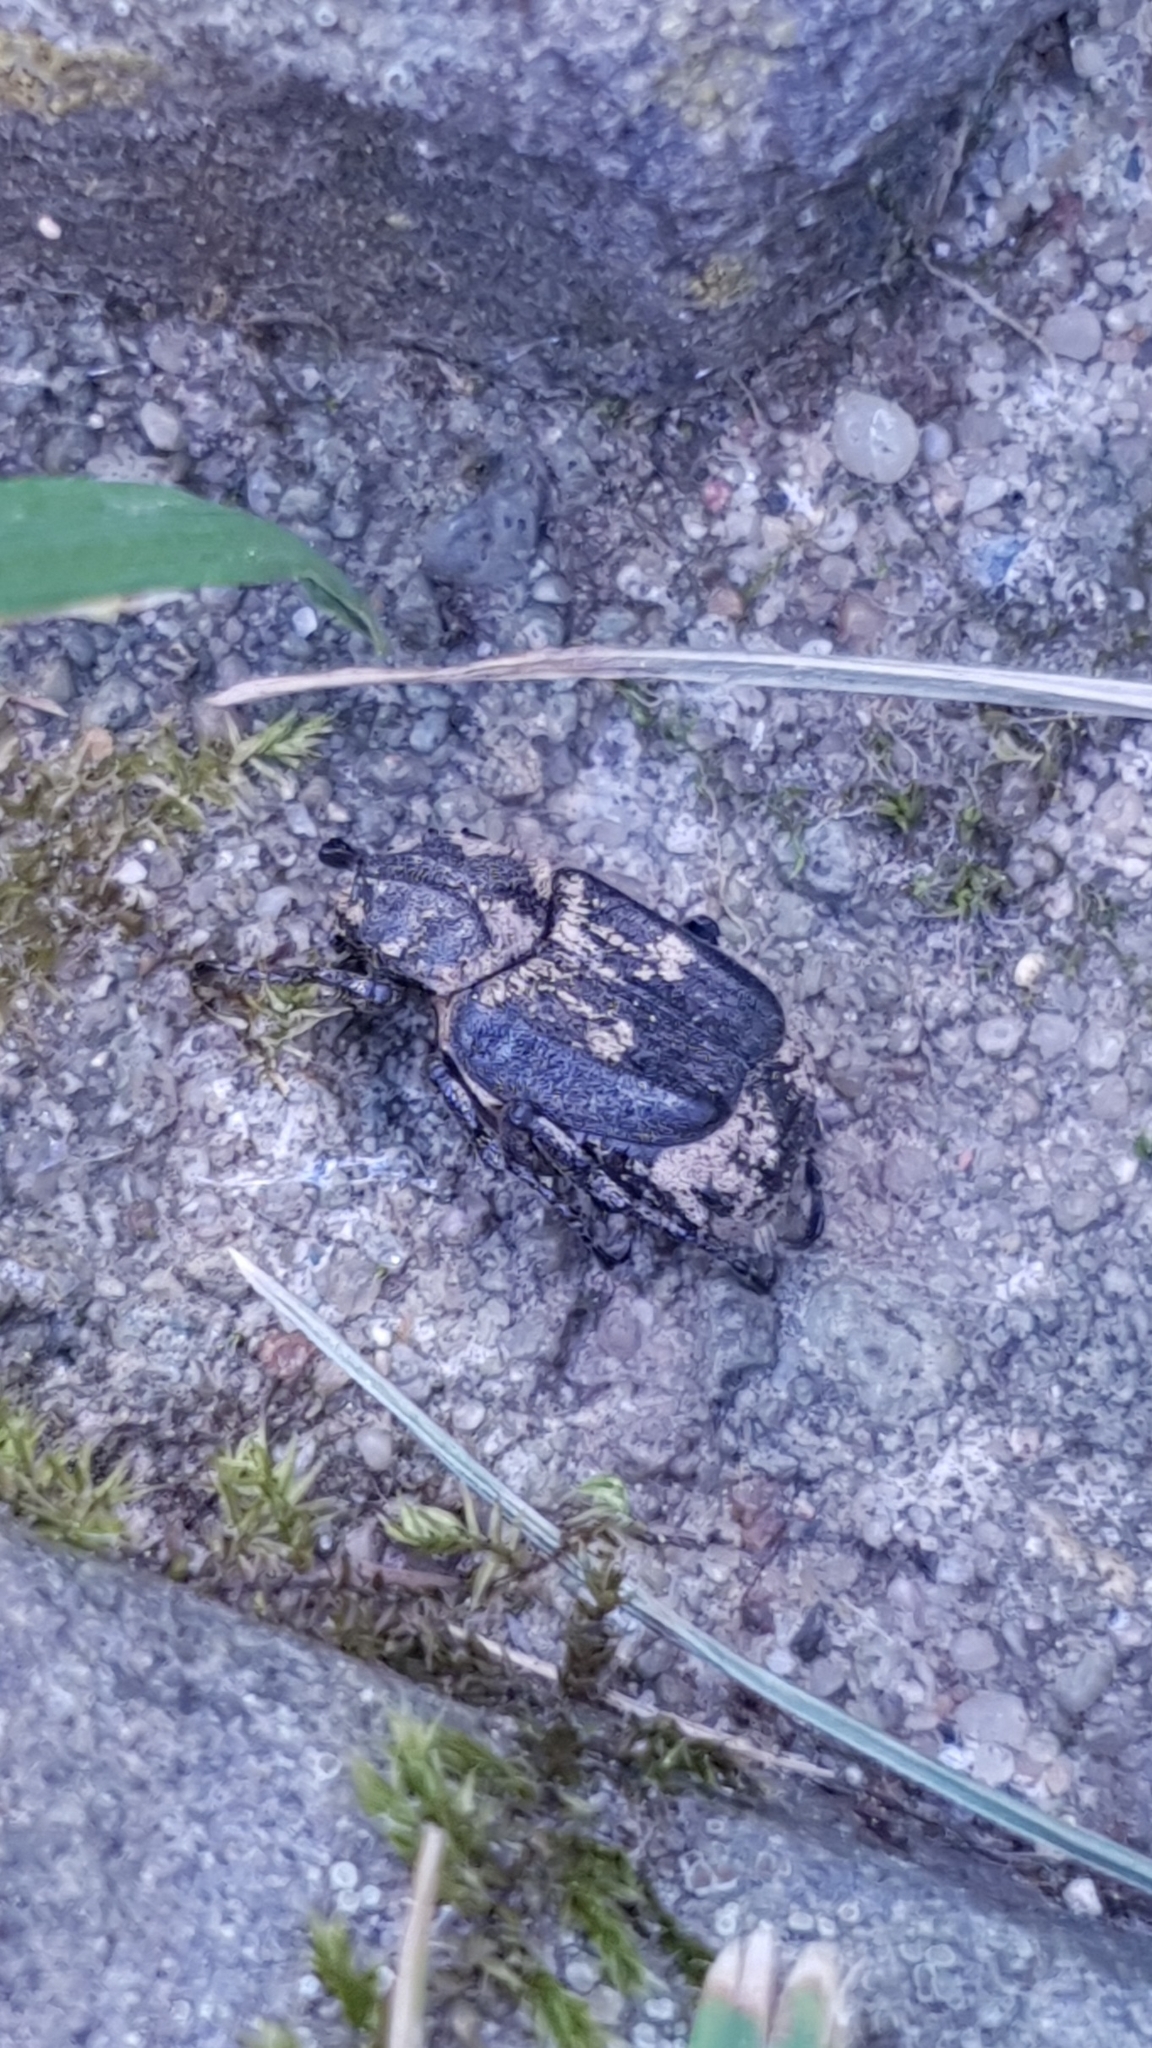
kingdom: Animalia
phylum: Arthropoda
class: Insecta
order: Coleoptera
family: Scarabaeidae
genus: Valgus
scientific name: Valgus hemipterus
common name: Bug flower chafer
